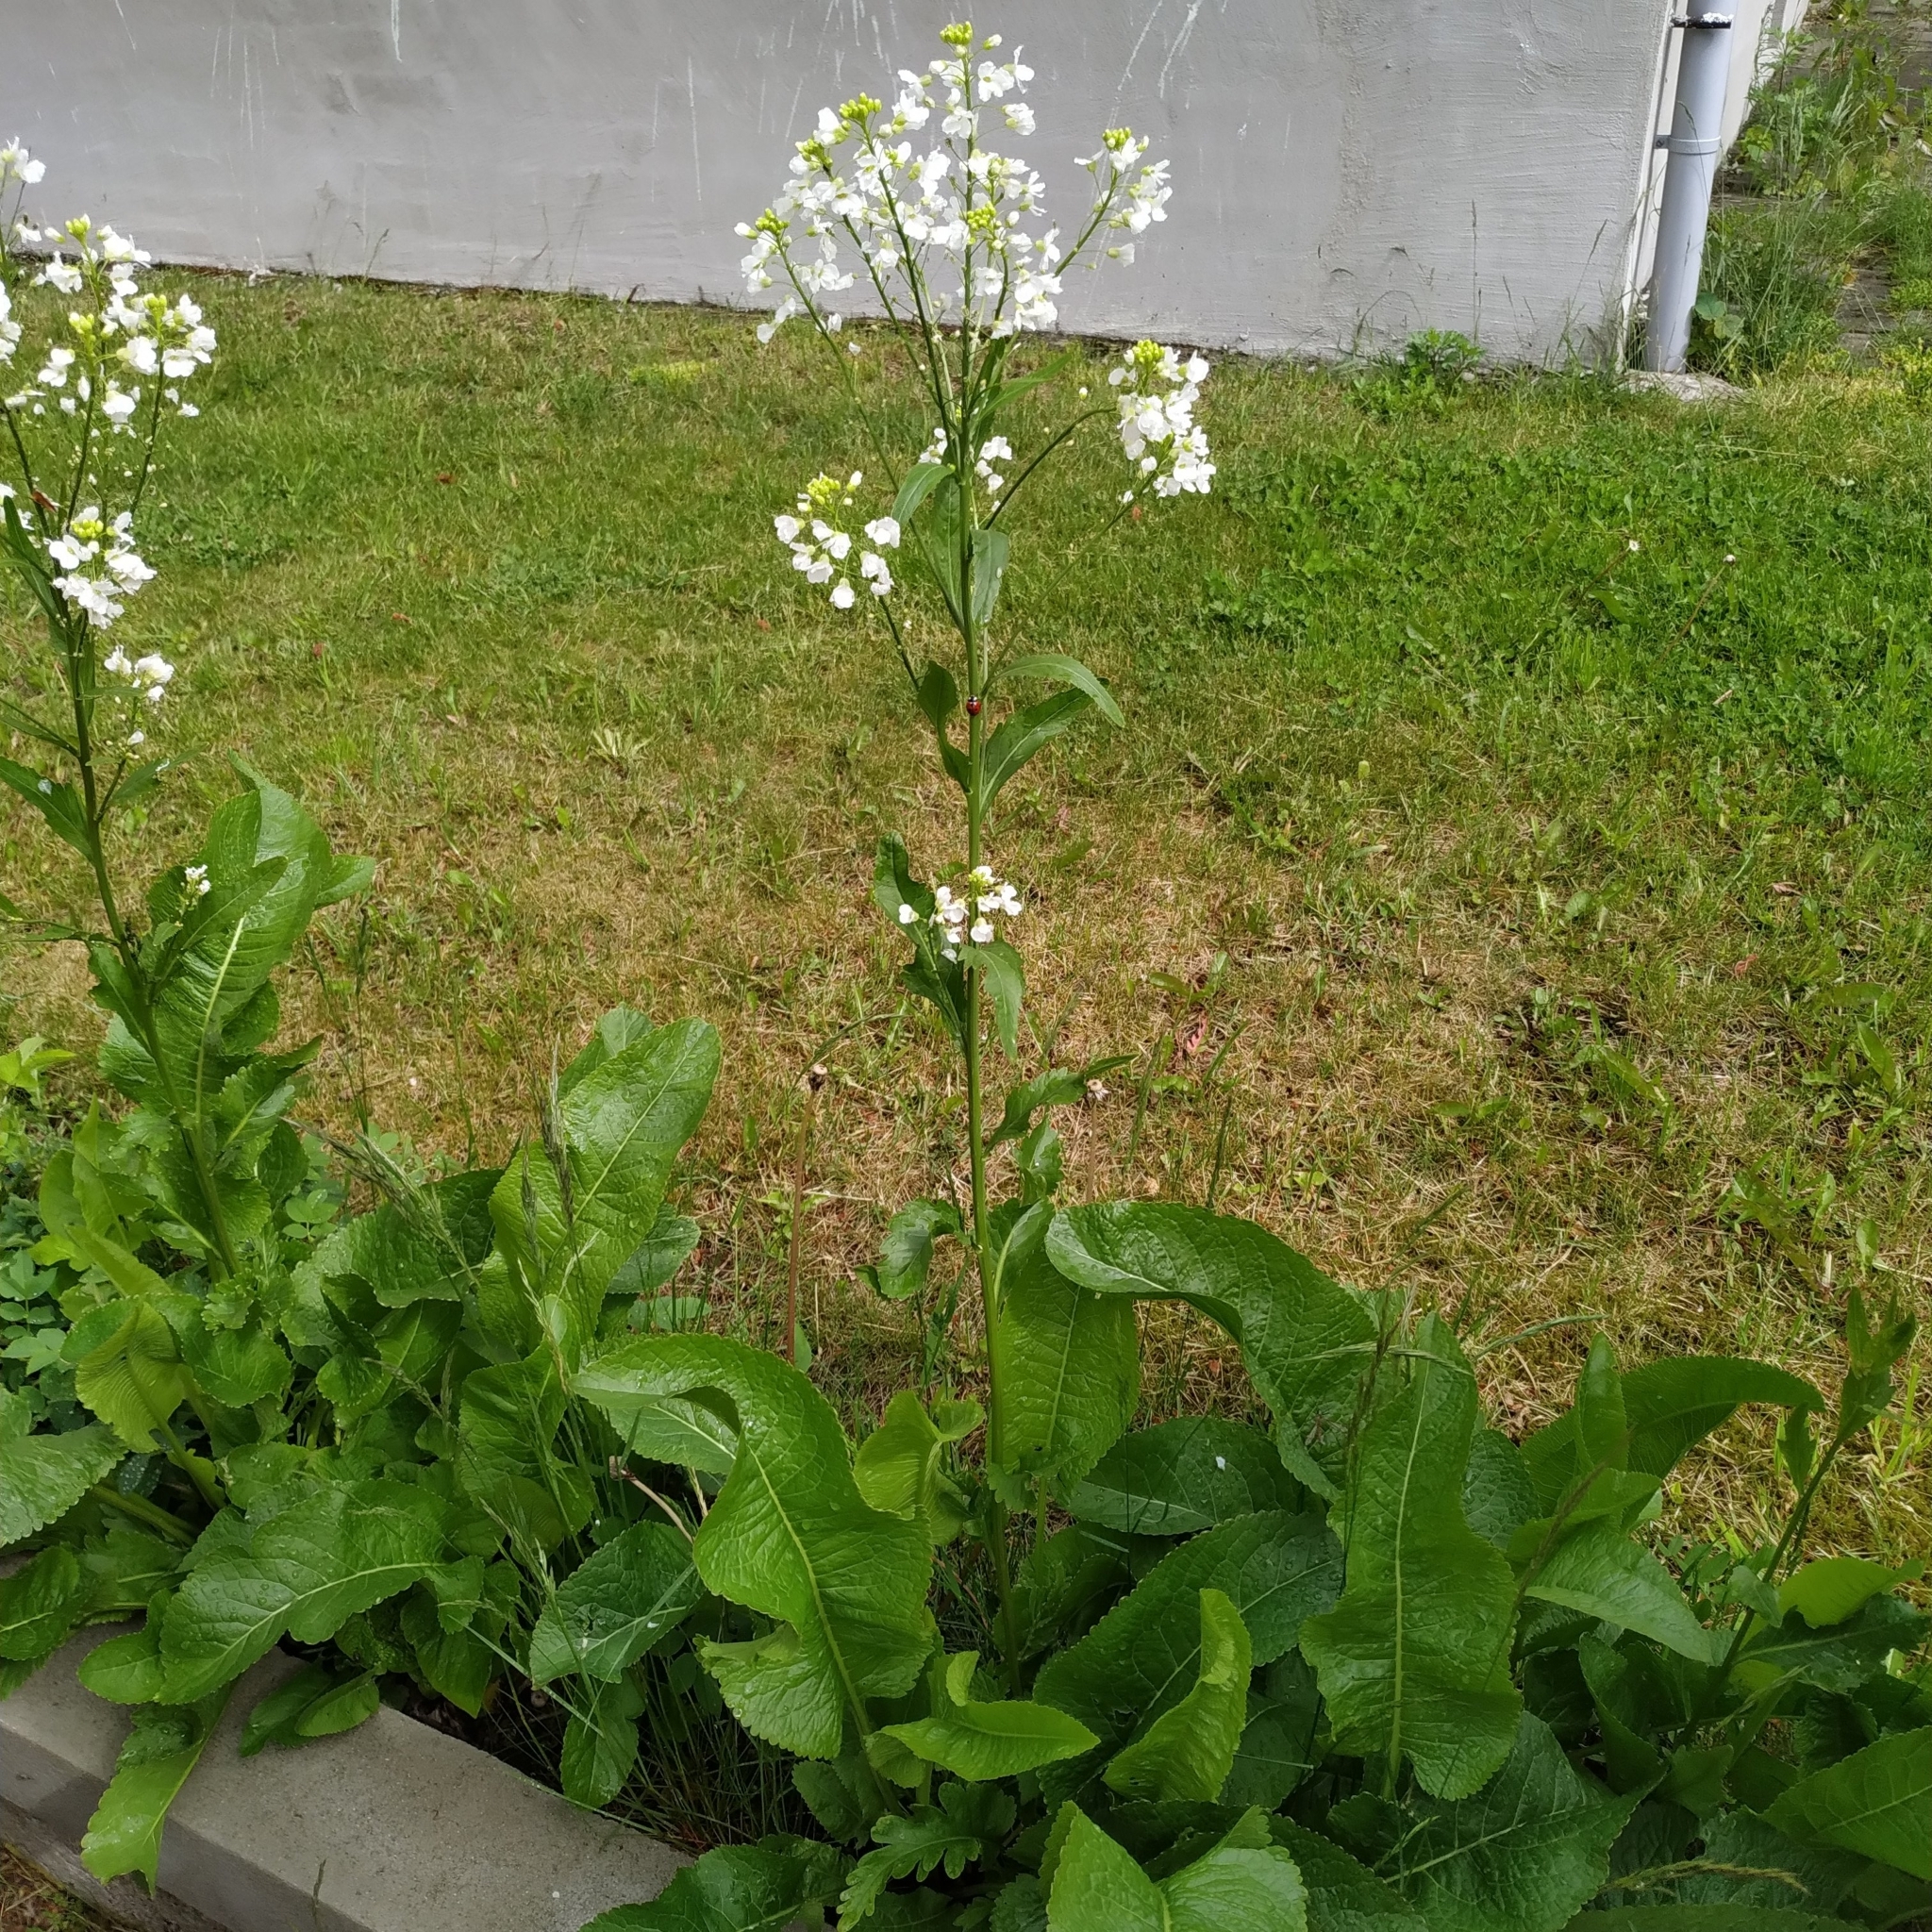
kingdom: Plantae
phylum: Tracheophyta
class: Magnoliopsida
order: Brassicales
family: Brassicaceae
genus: Armoracia
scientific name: Armoracia rusticana
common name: Horseradish
